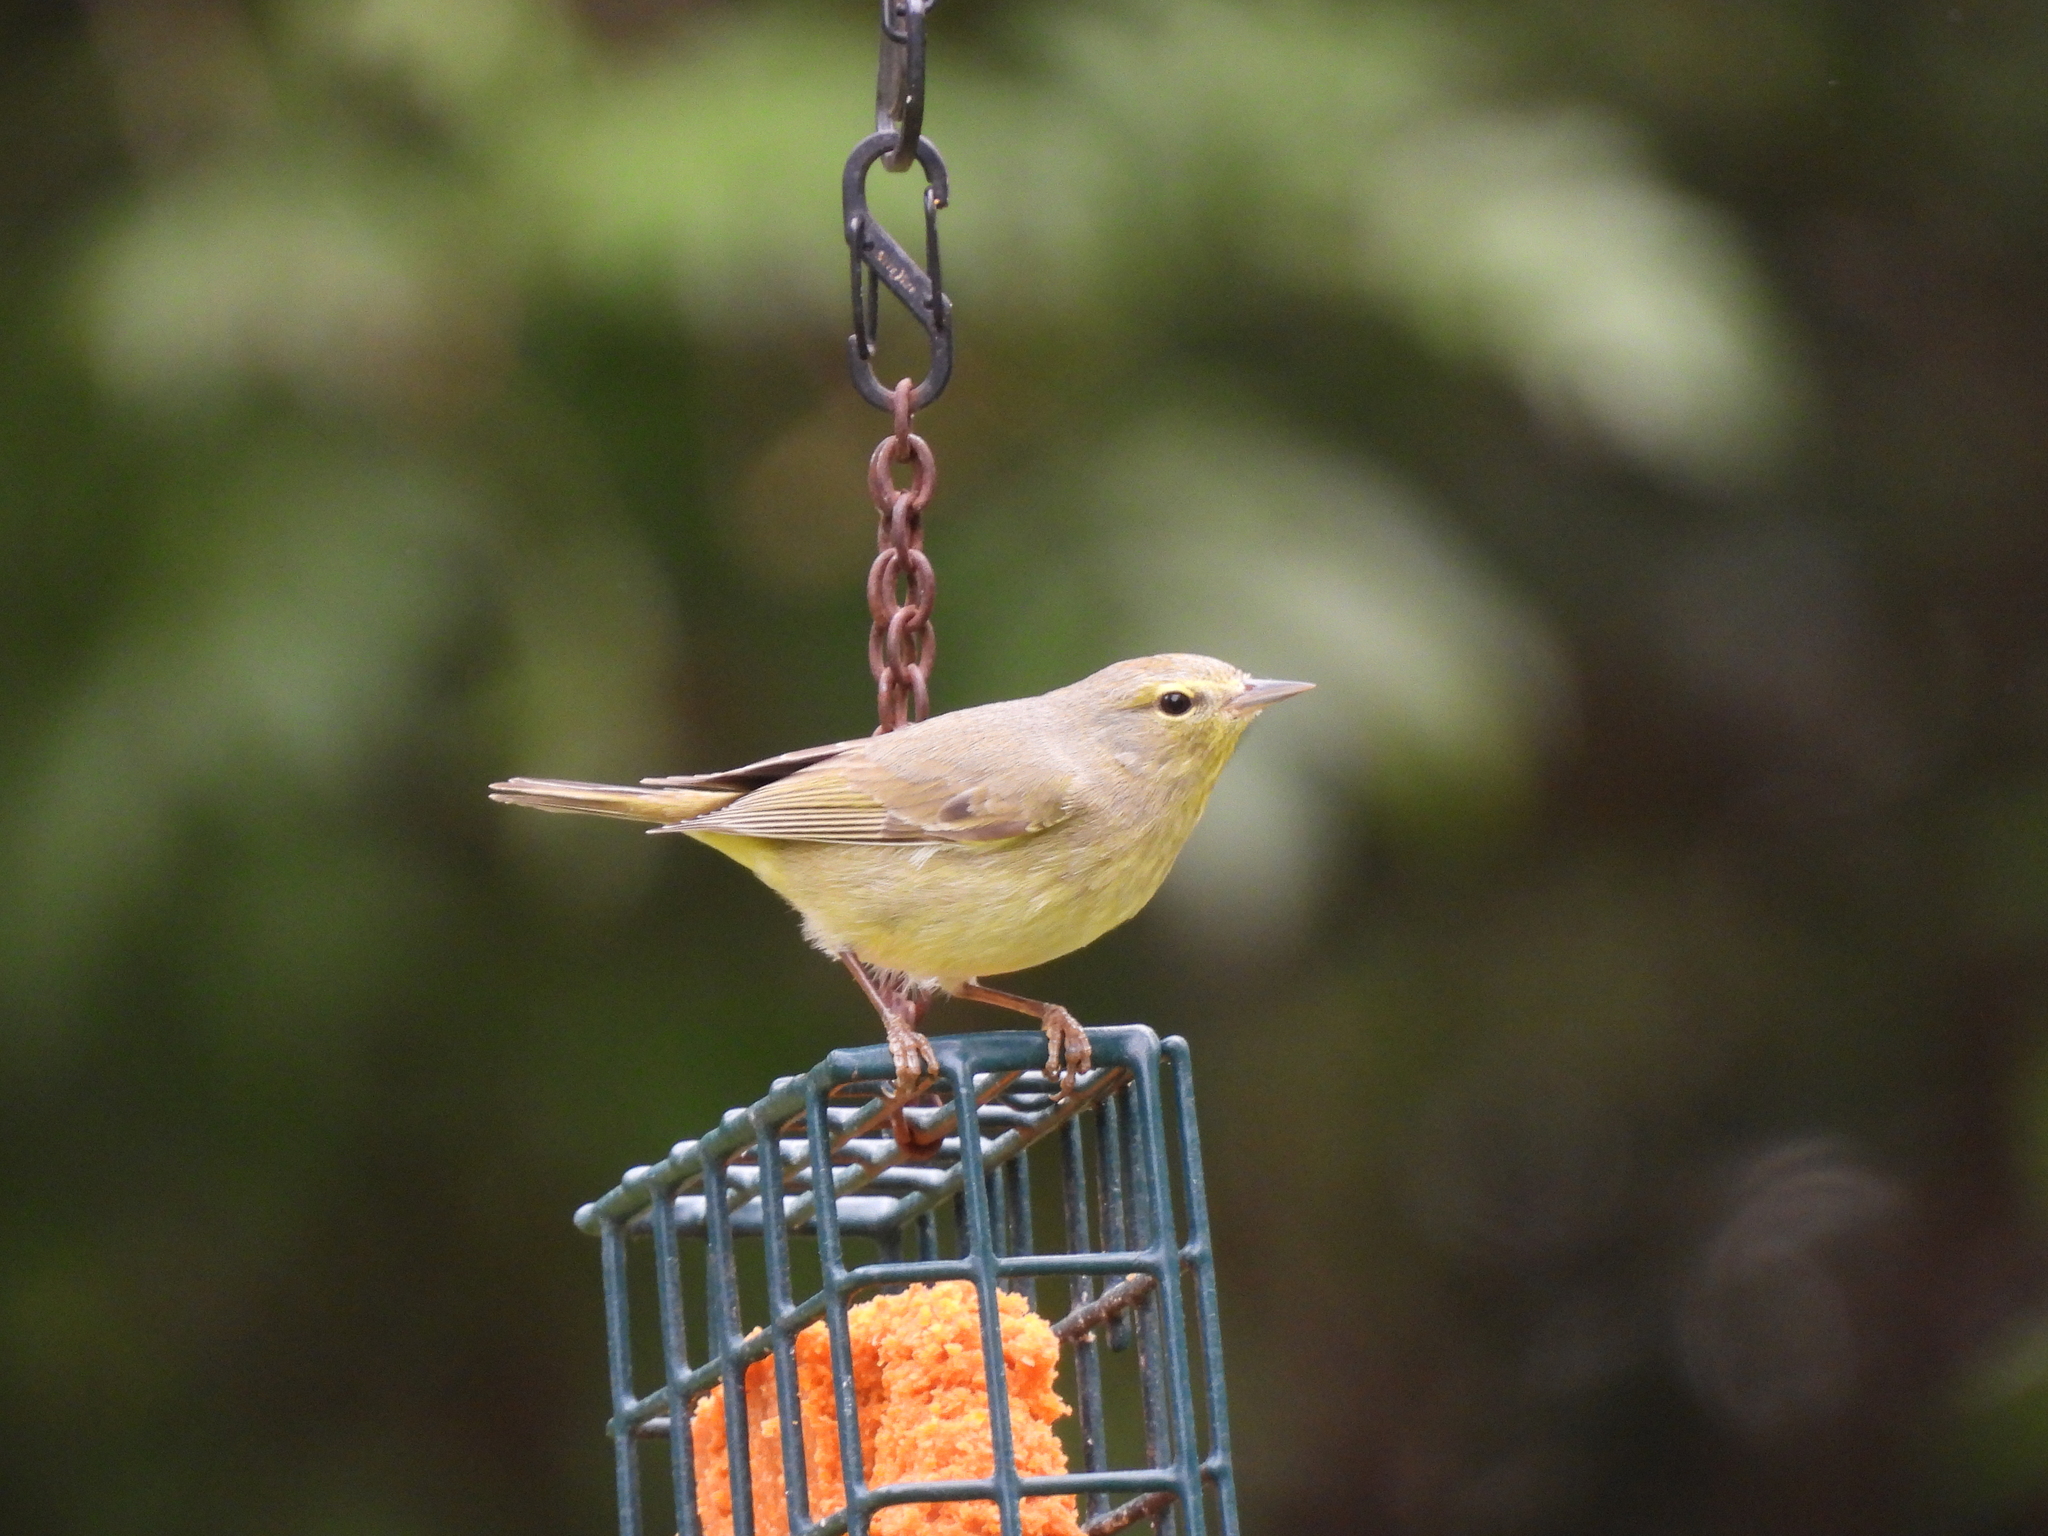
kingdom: Animalia
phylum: Chordata
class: Aves
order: Passeriformes
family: Parulidae
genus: Leiothlypis
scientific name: Leiothlypis celata
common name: Orange-crowned warbler
